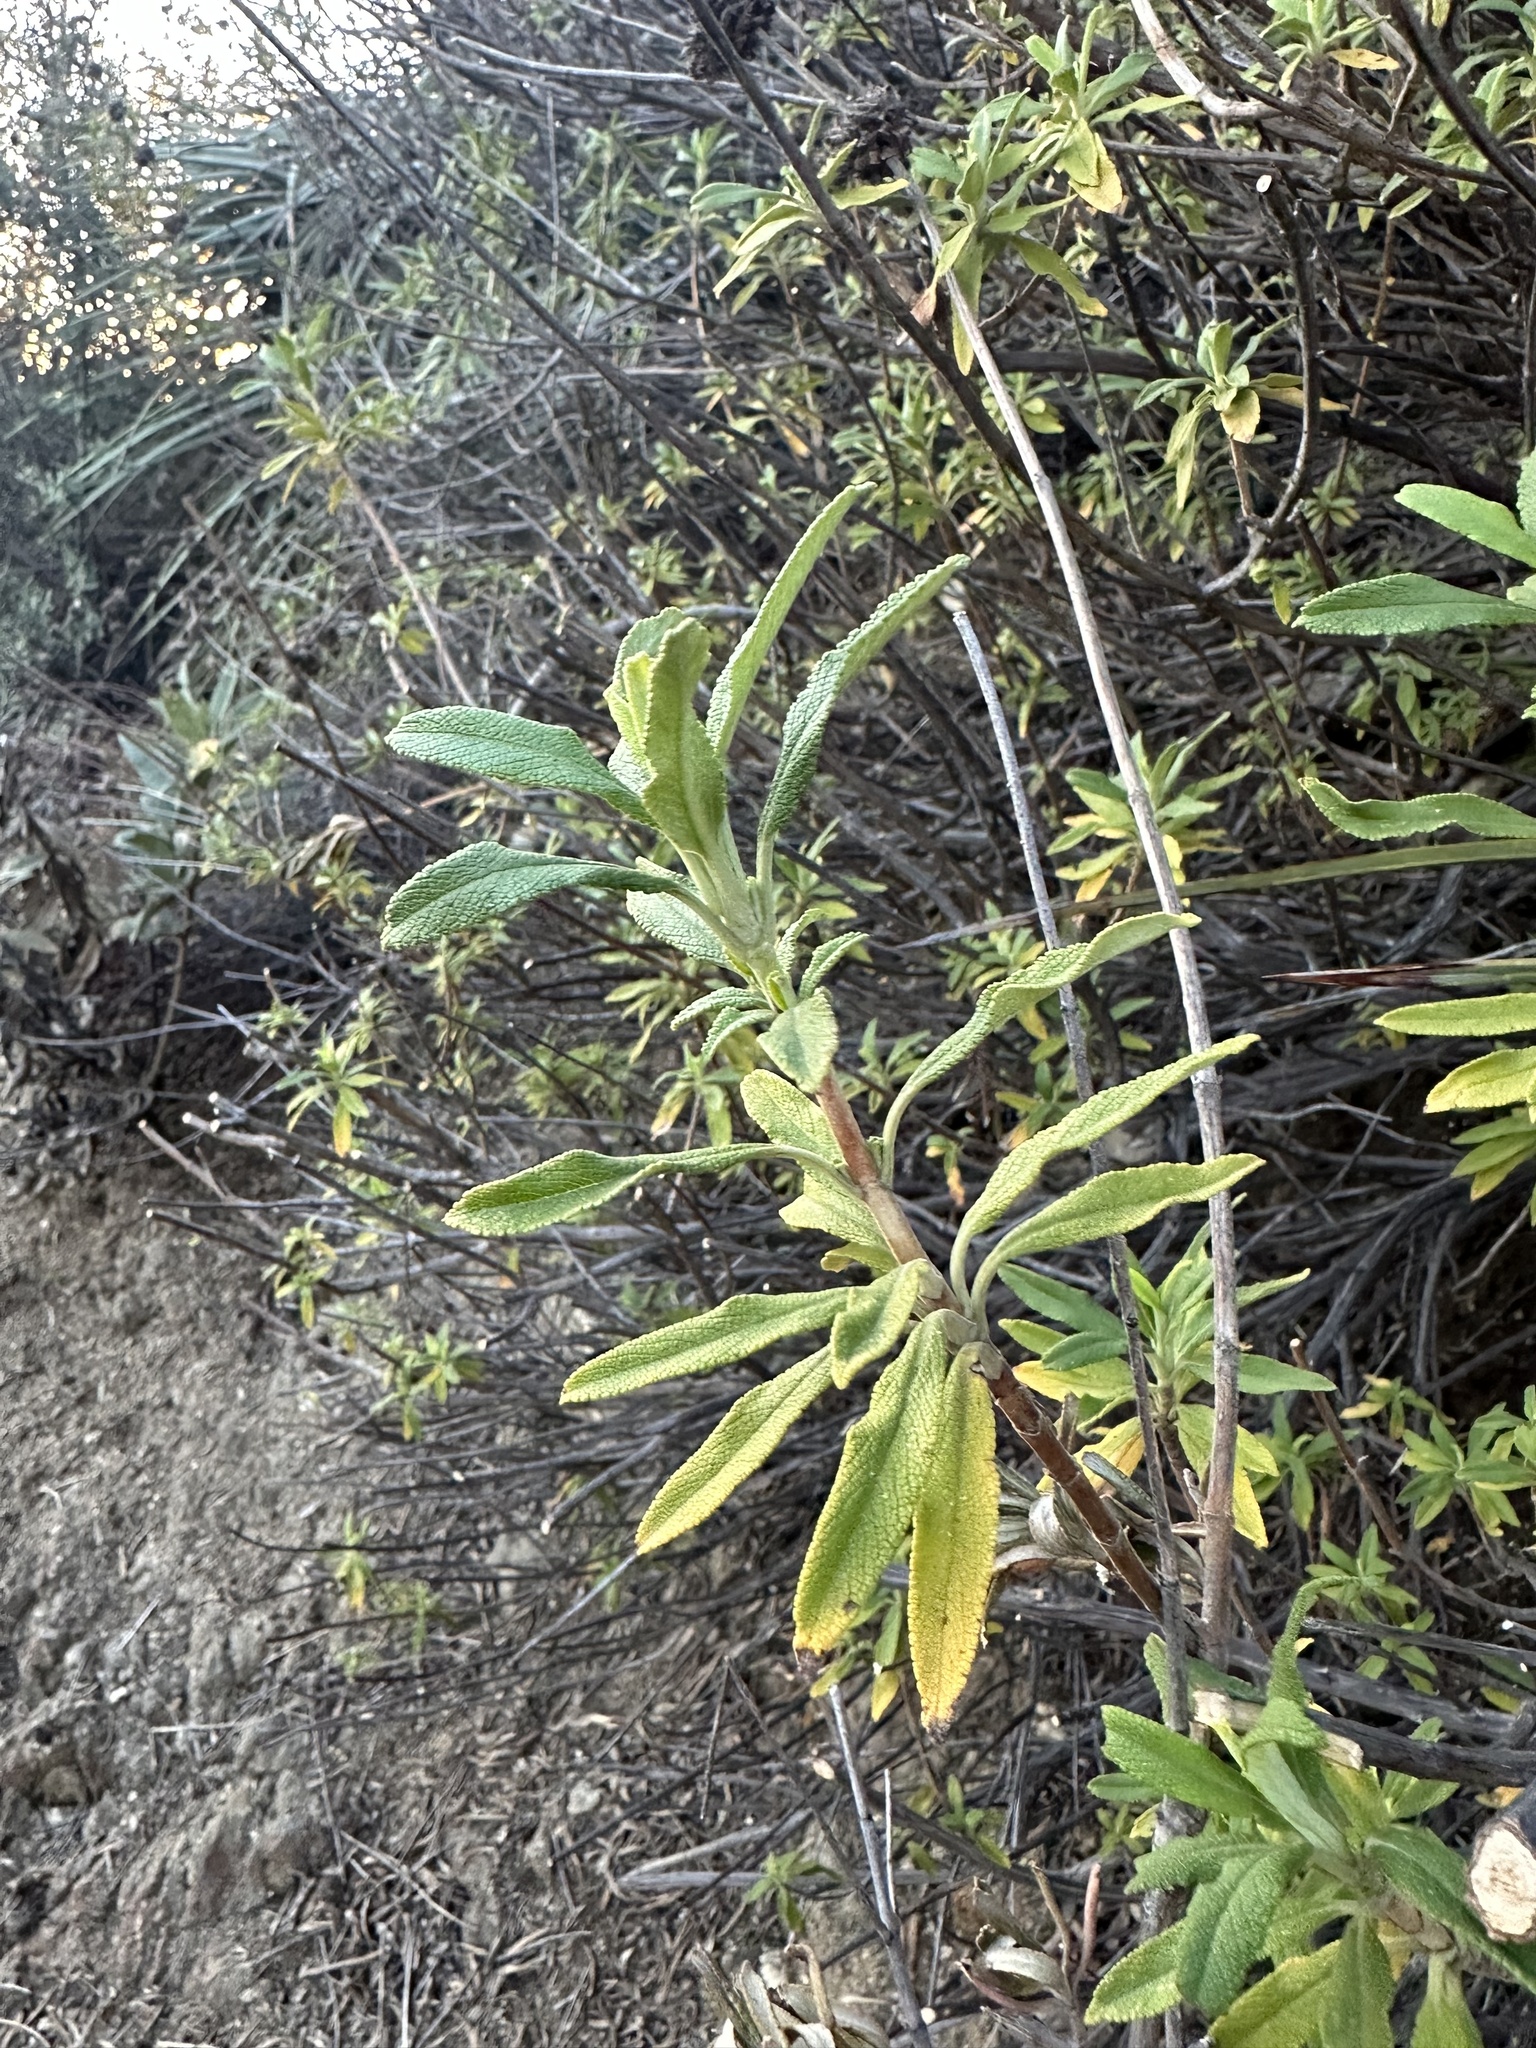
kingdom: Plantae
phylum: Tracheophyta
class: Magnoliopsida
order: Lamiales
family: Lamiaceae
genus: Salvia
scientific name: Salvia mellifera
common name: Black sage
